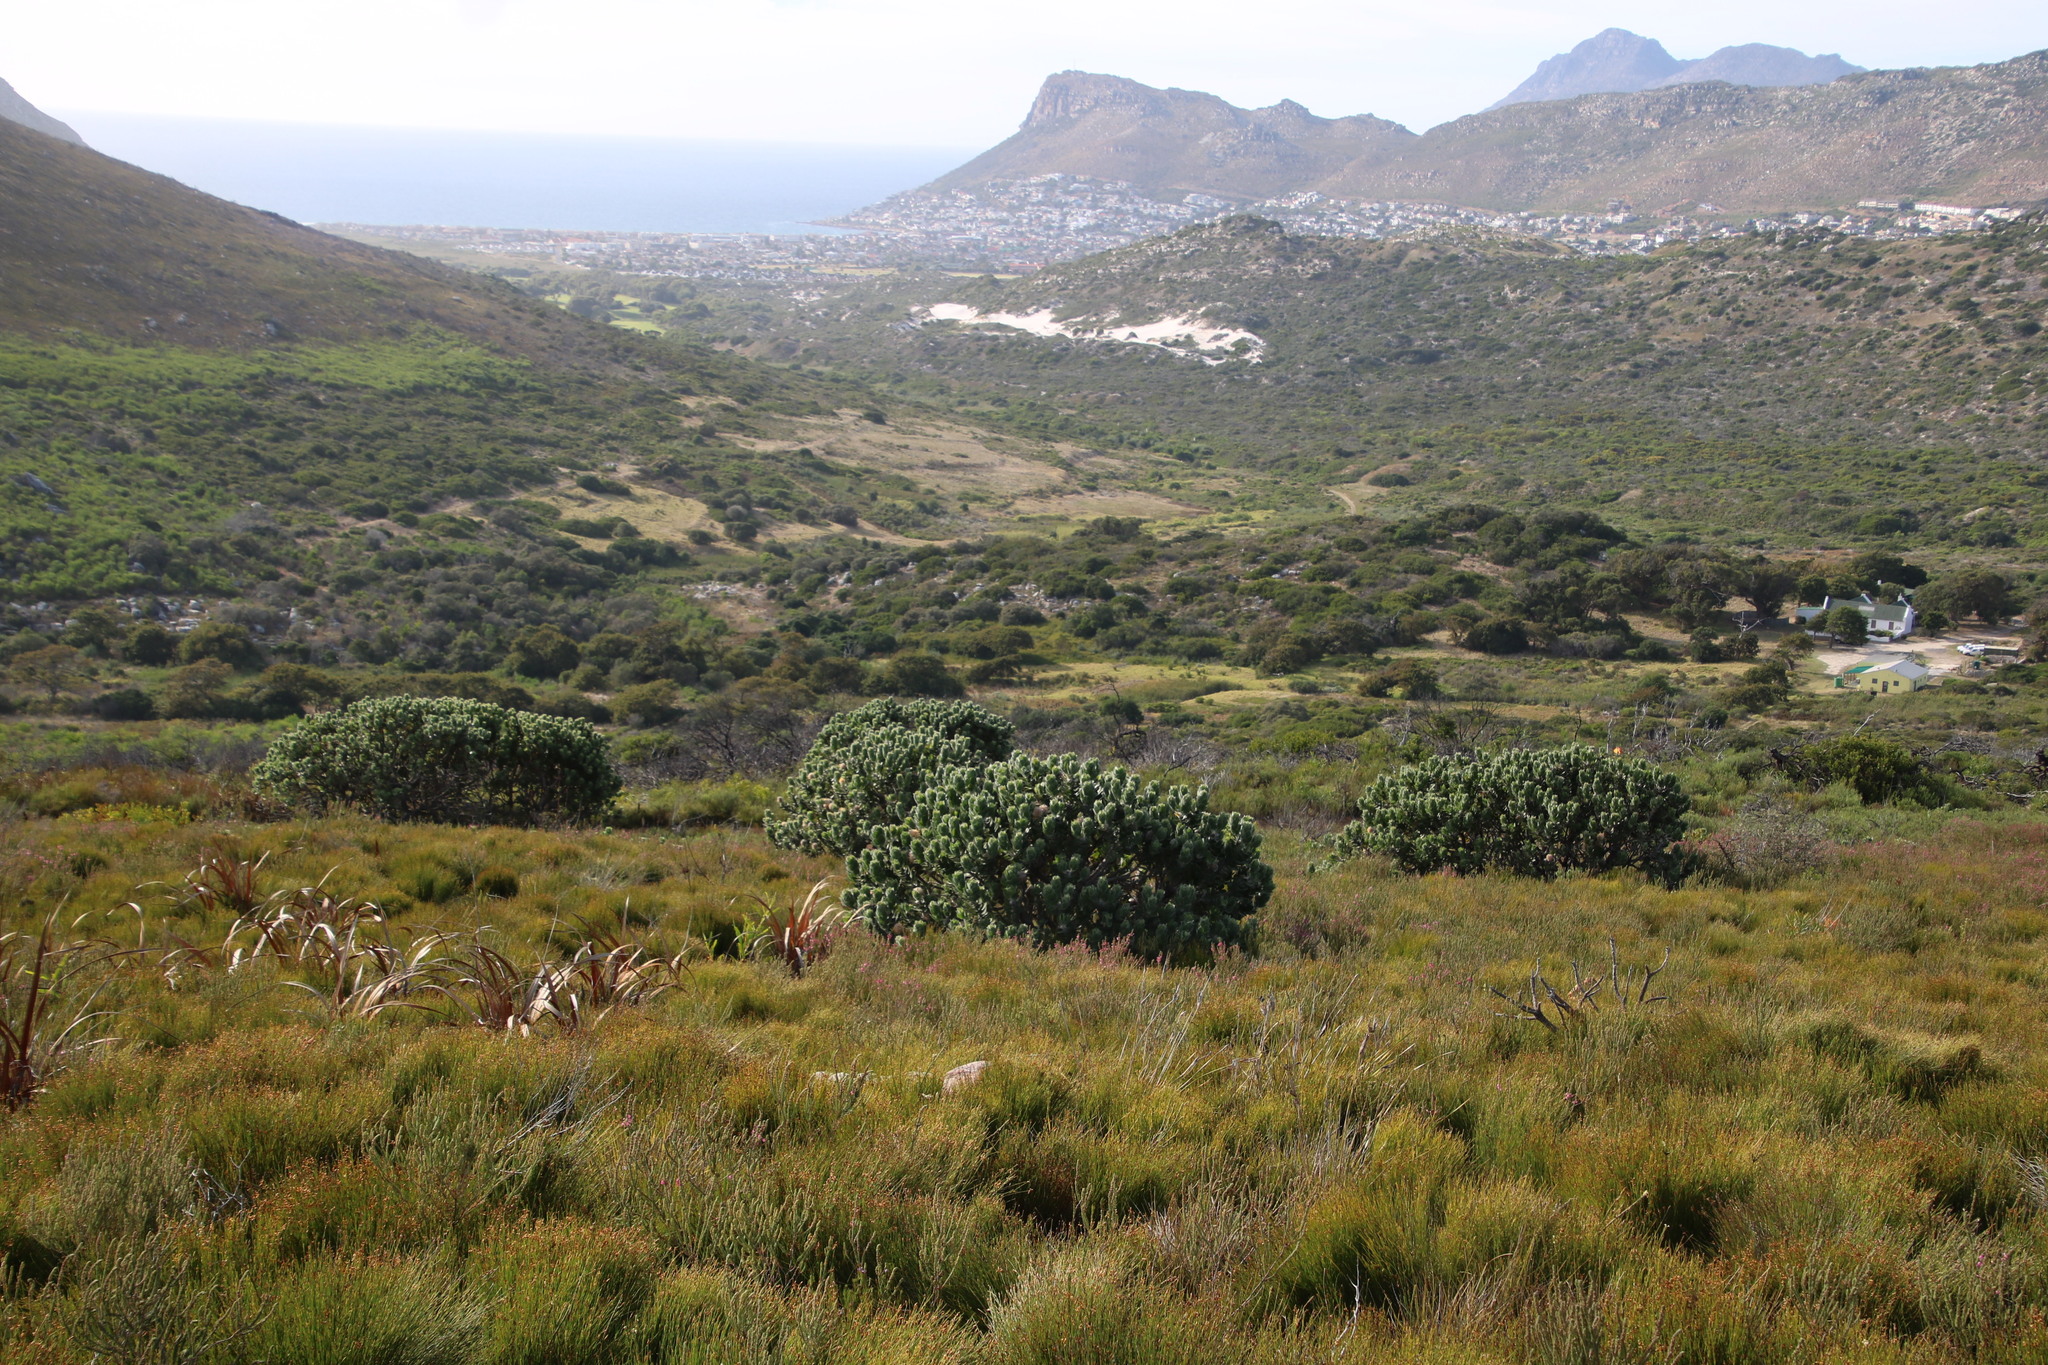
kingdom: Plantae
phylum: Tracheophyta
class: Magnoliopsida
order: Proteales
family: Proteaceae
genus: Leucospermum
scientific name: Leucospermum conocarpodendron
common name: Tree pincushion
